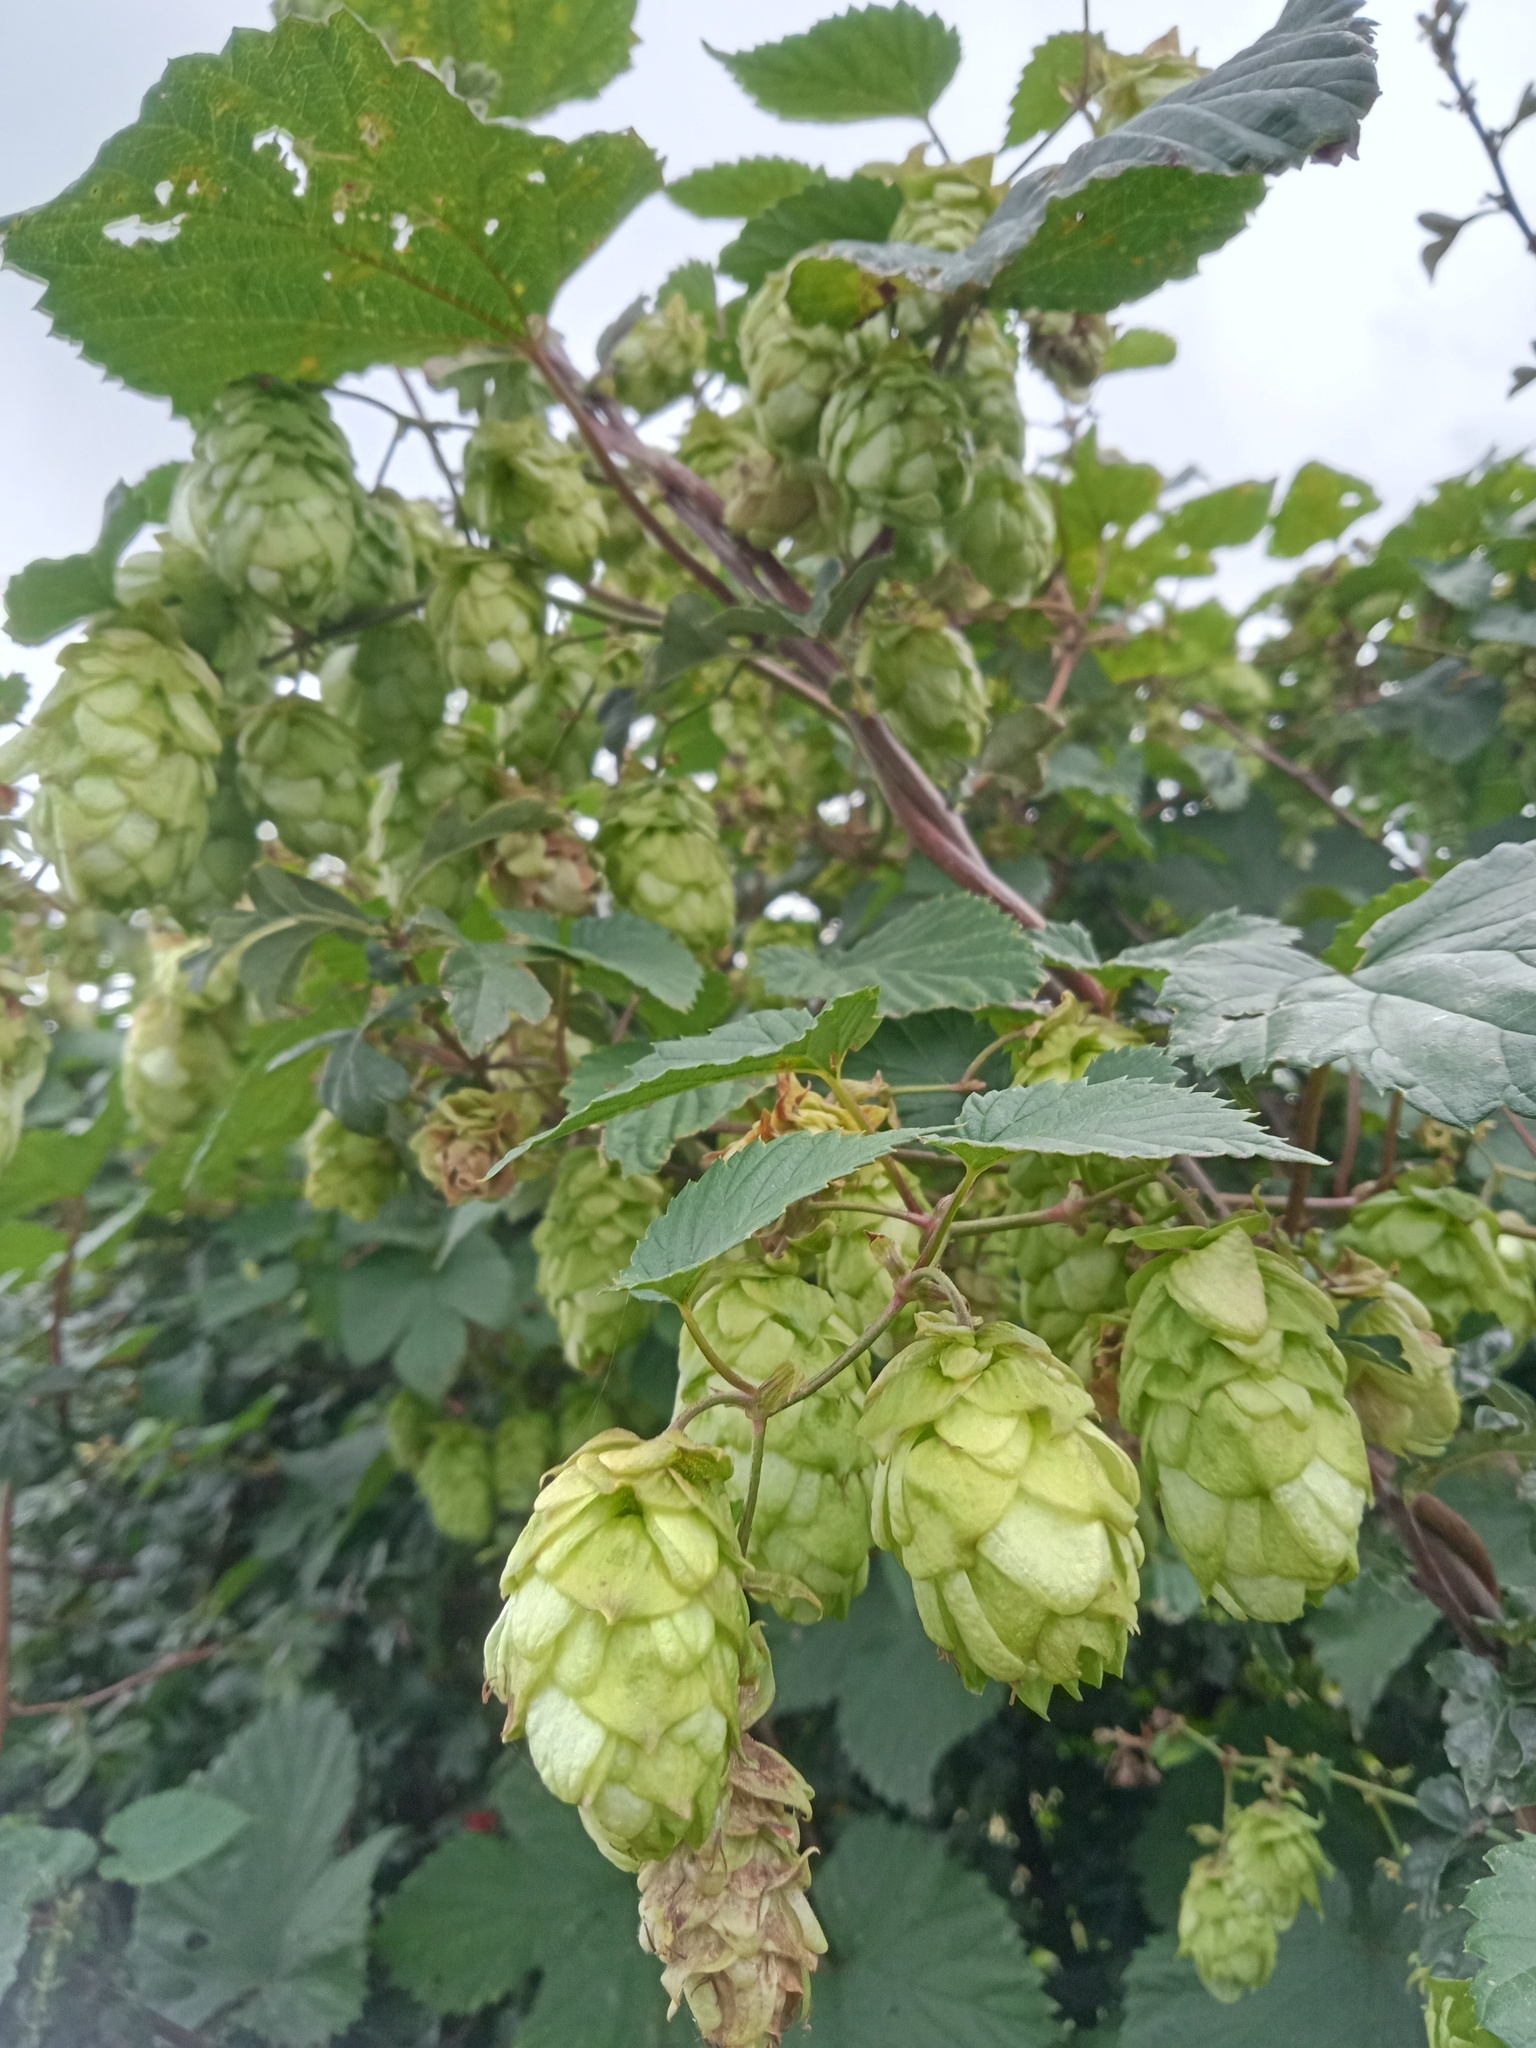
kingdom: Plantae
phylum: Tracheophyta
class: Magnoliopsida
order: Rosales
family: Cannabaceae
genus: Humulus
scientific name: Humulus lupulus
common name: Hop
